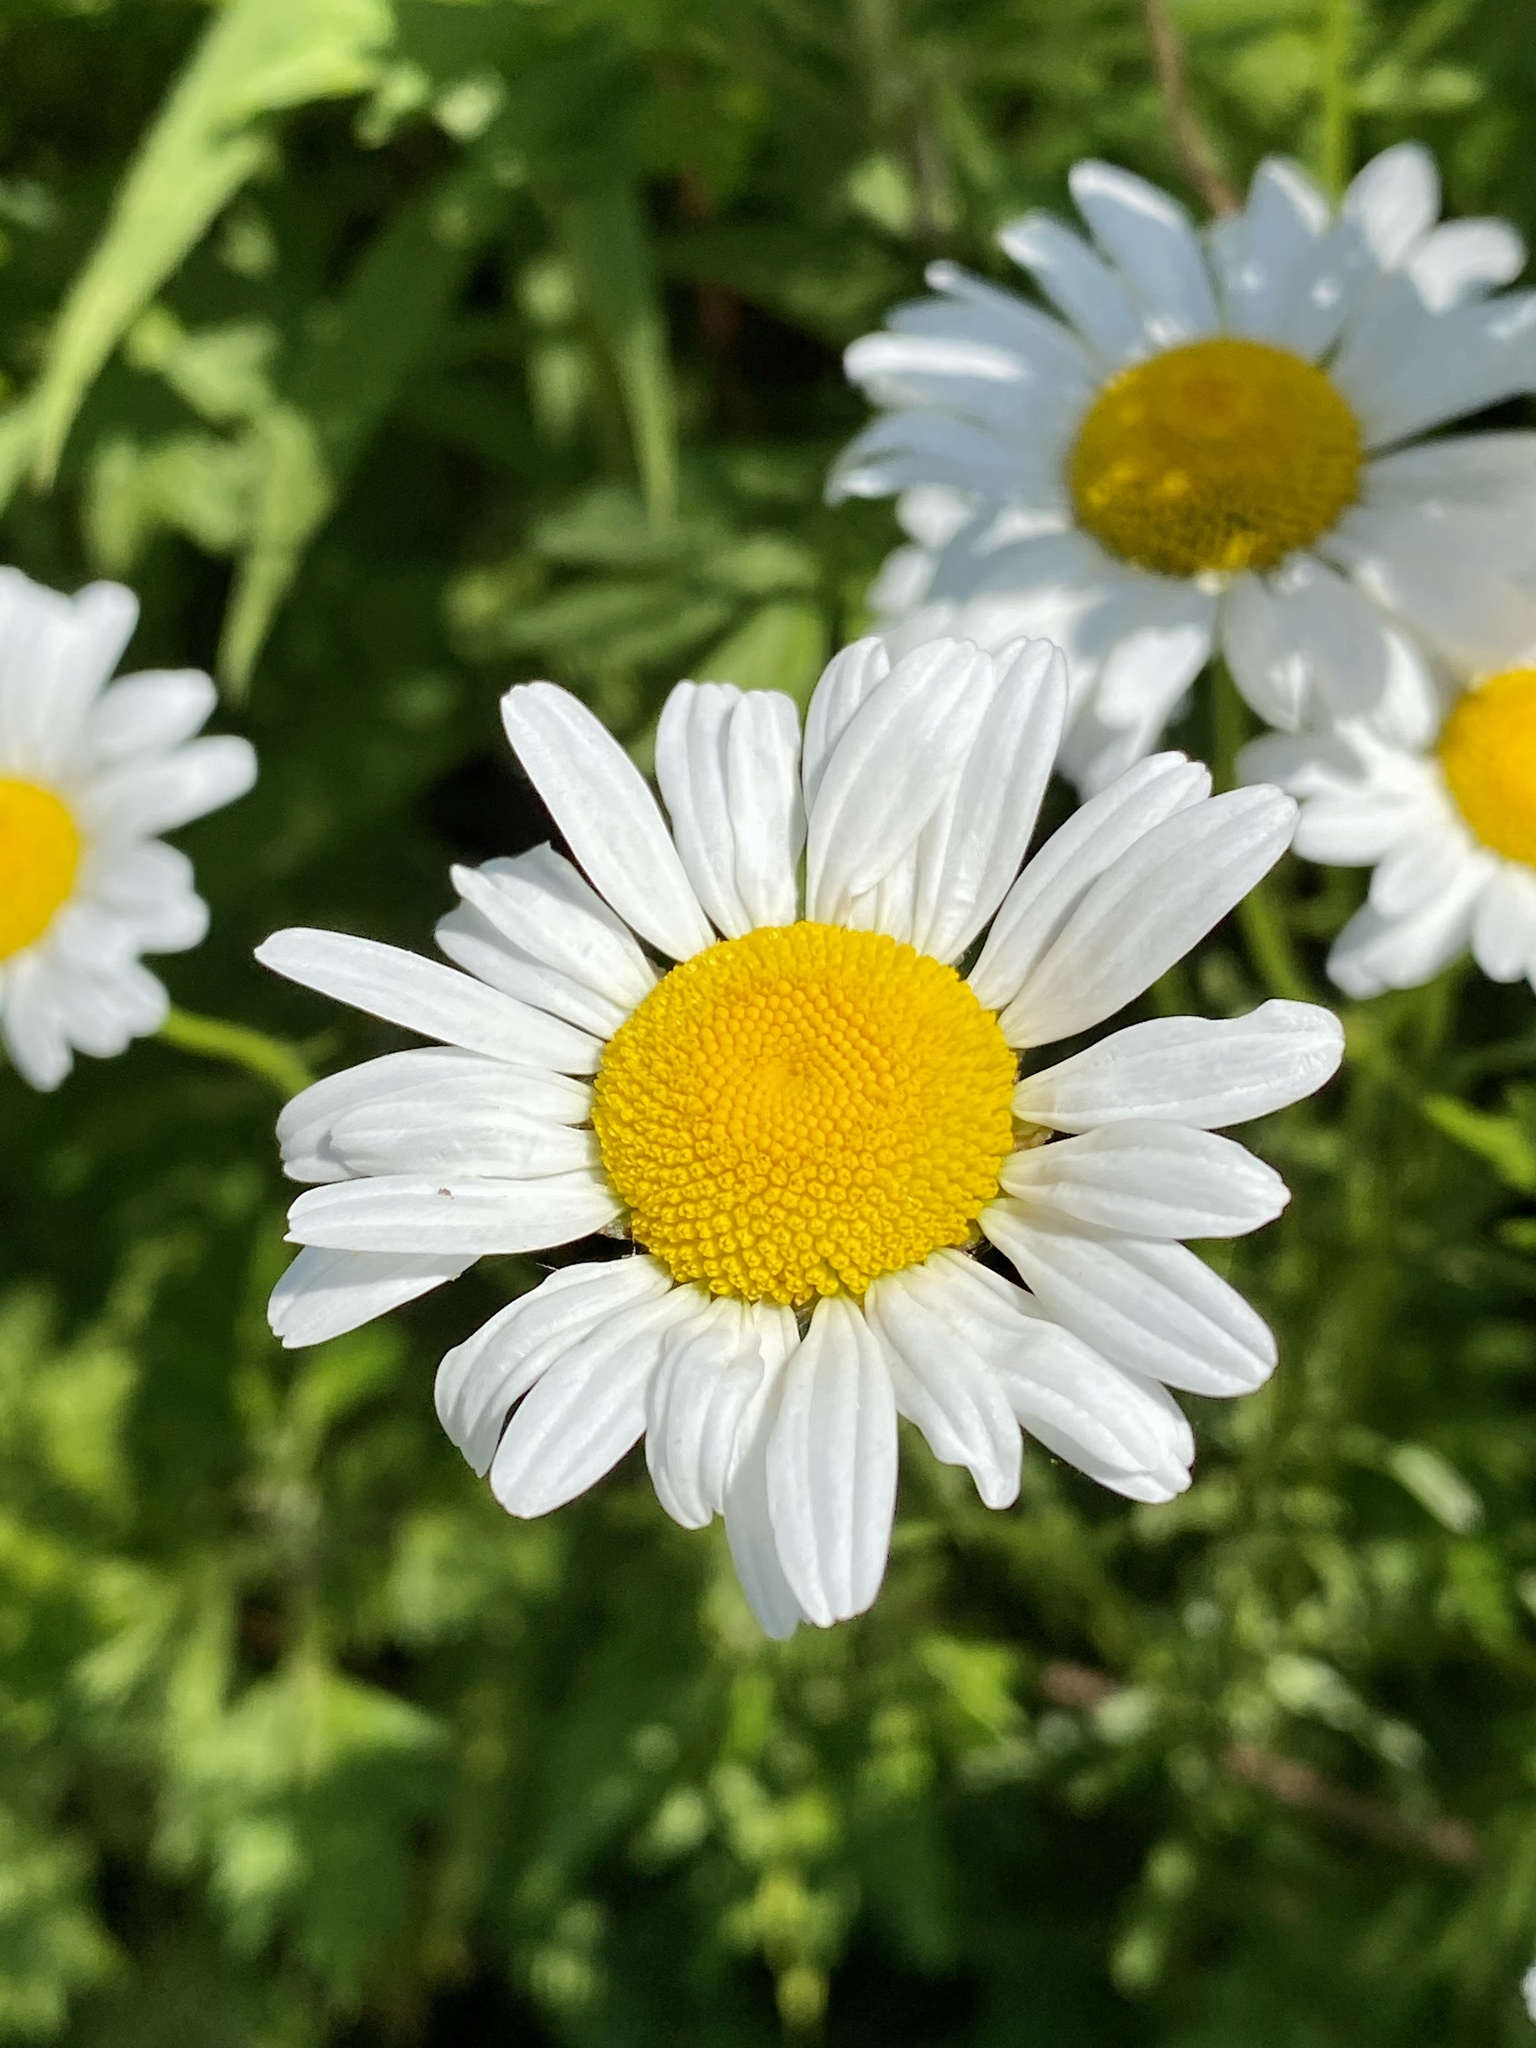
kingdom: Plantae
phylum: Tracheophyta
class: Magnoliopsida
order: Asterales
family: Asteraceae
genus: Leucanthemum
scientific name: Leucanthemum vulgare
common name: Oxeye daisy
